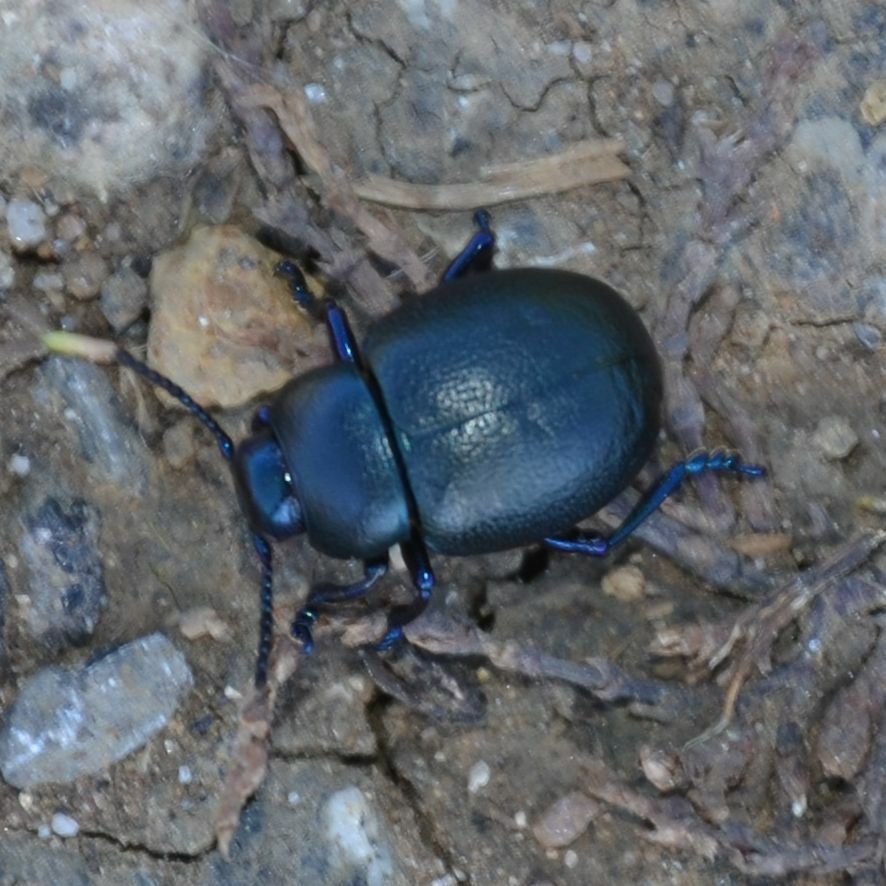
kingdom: Animalia
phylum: Arthropoda
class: Insecta
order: Coleoptera
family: Chrysomelidae
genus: Timarcha
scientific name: Timarcha goettingensis
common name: Small bloody-nosed beetle
